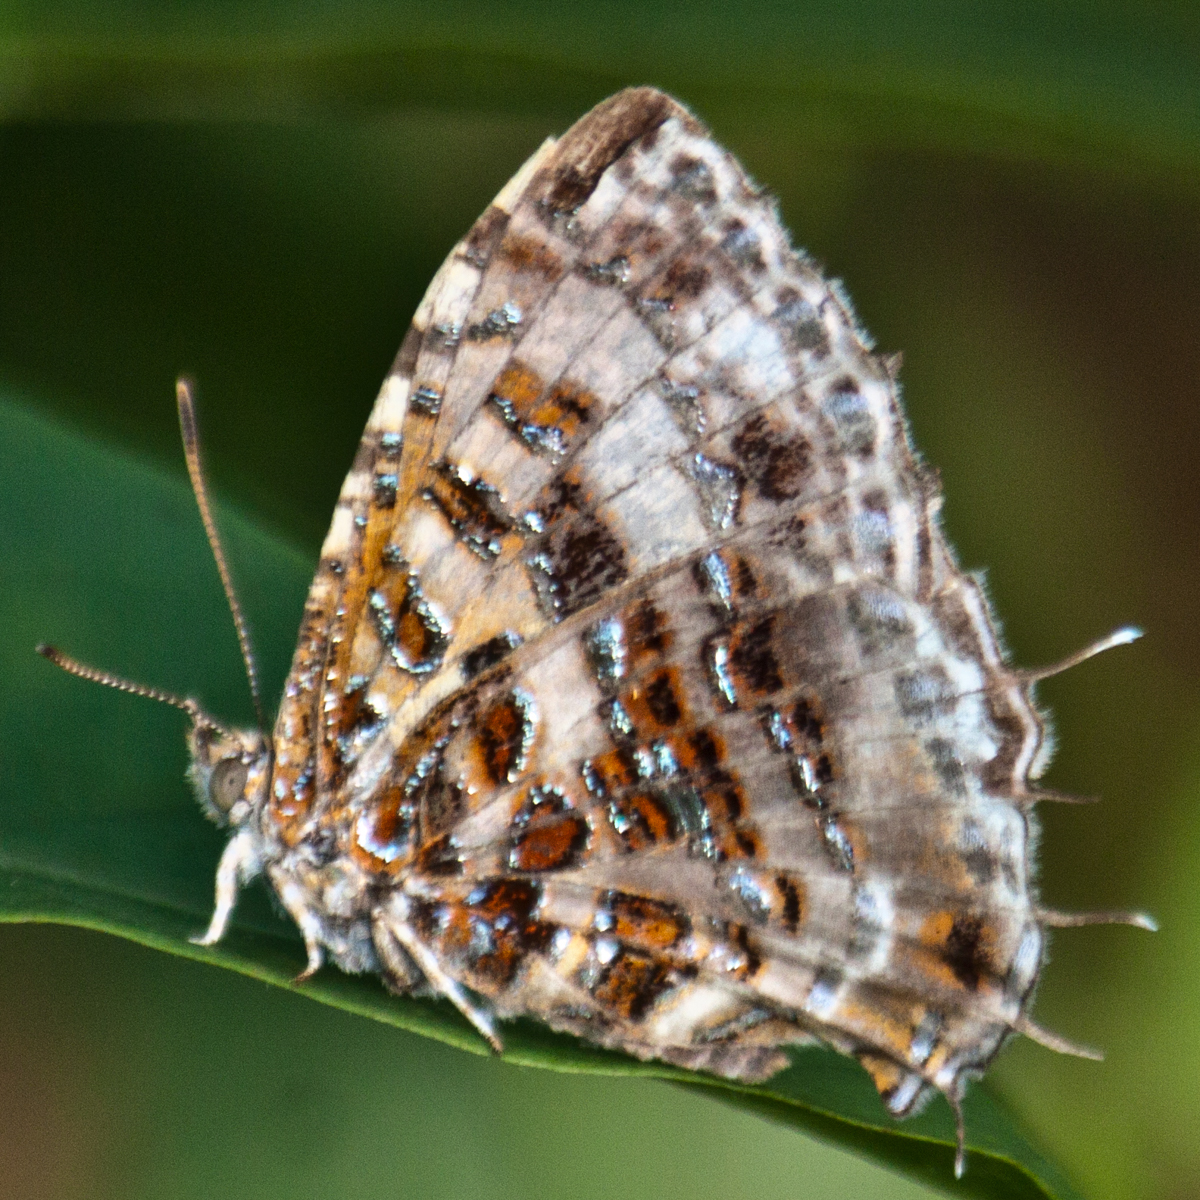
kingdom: Animalia
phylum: Arthropoda
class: Insecta
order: Lepidoptera
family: Lycaenidae
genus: Catapaecilma
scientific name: Catapaecilma major
